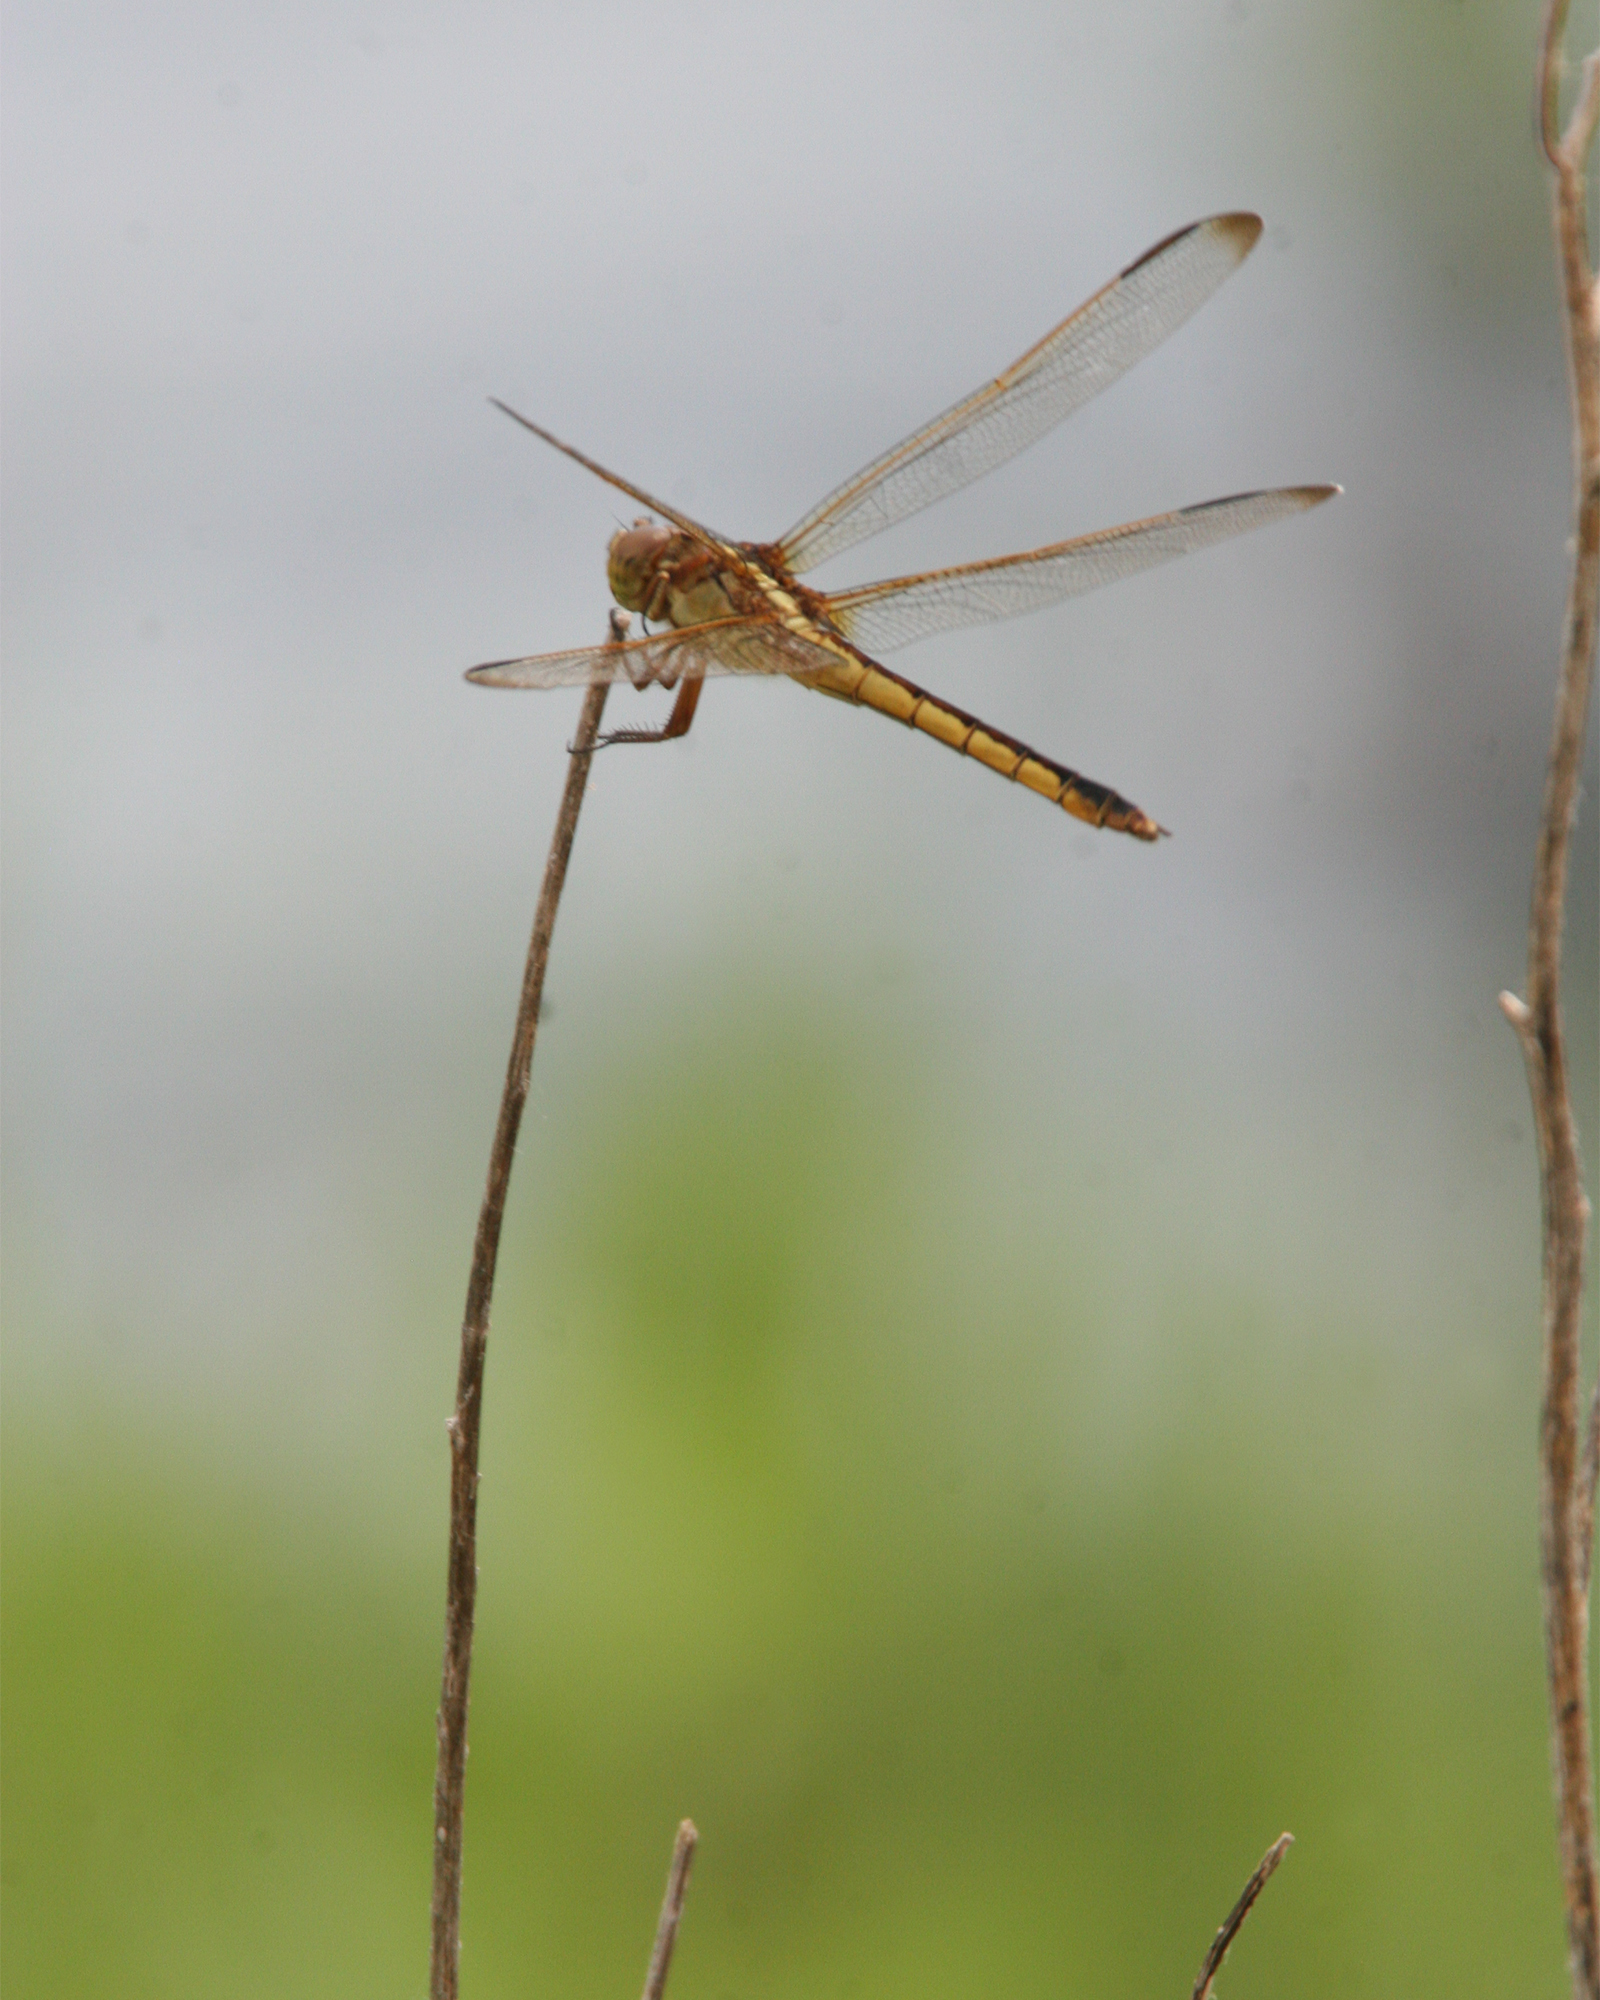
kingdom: Animalia
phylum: Arthropoda
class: Insecta
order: Odonata
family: Libellulidae
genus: Libellula
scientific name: Libellula needhami
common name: Needham's skimmer
